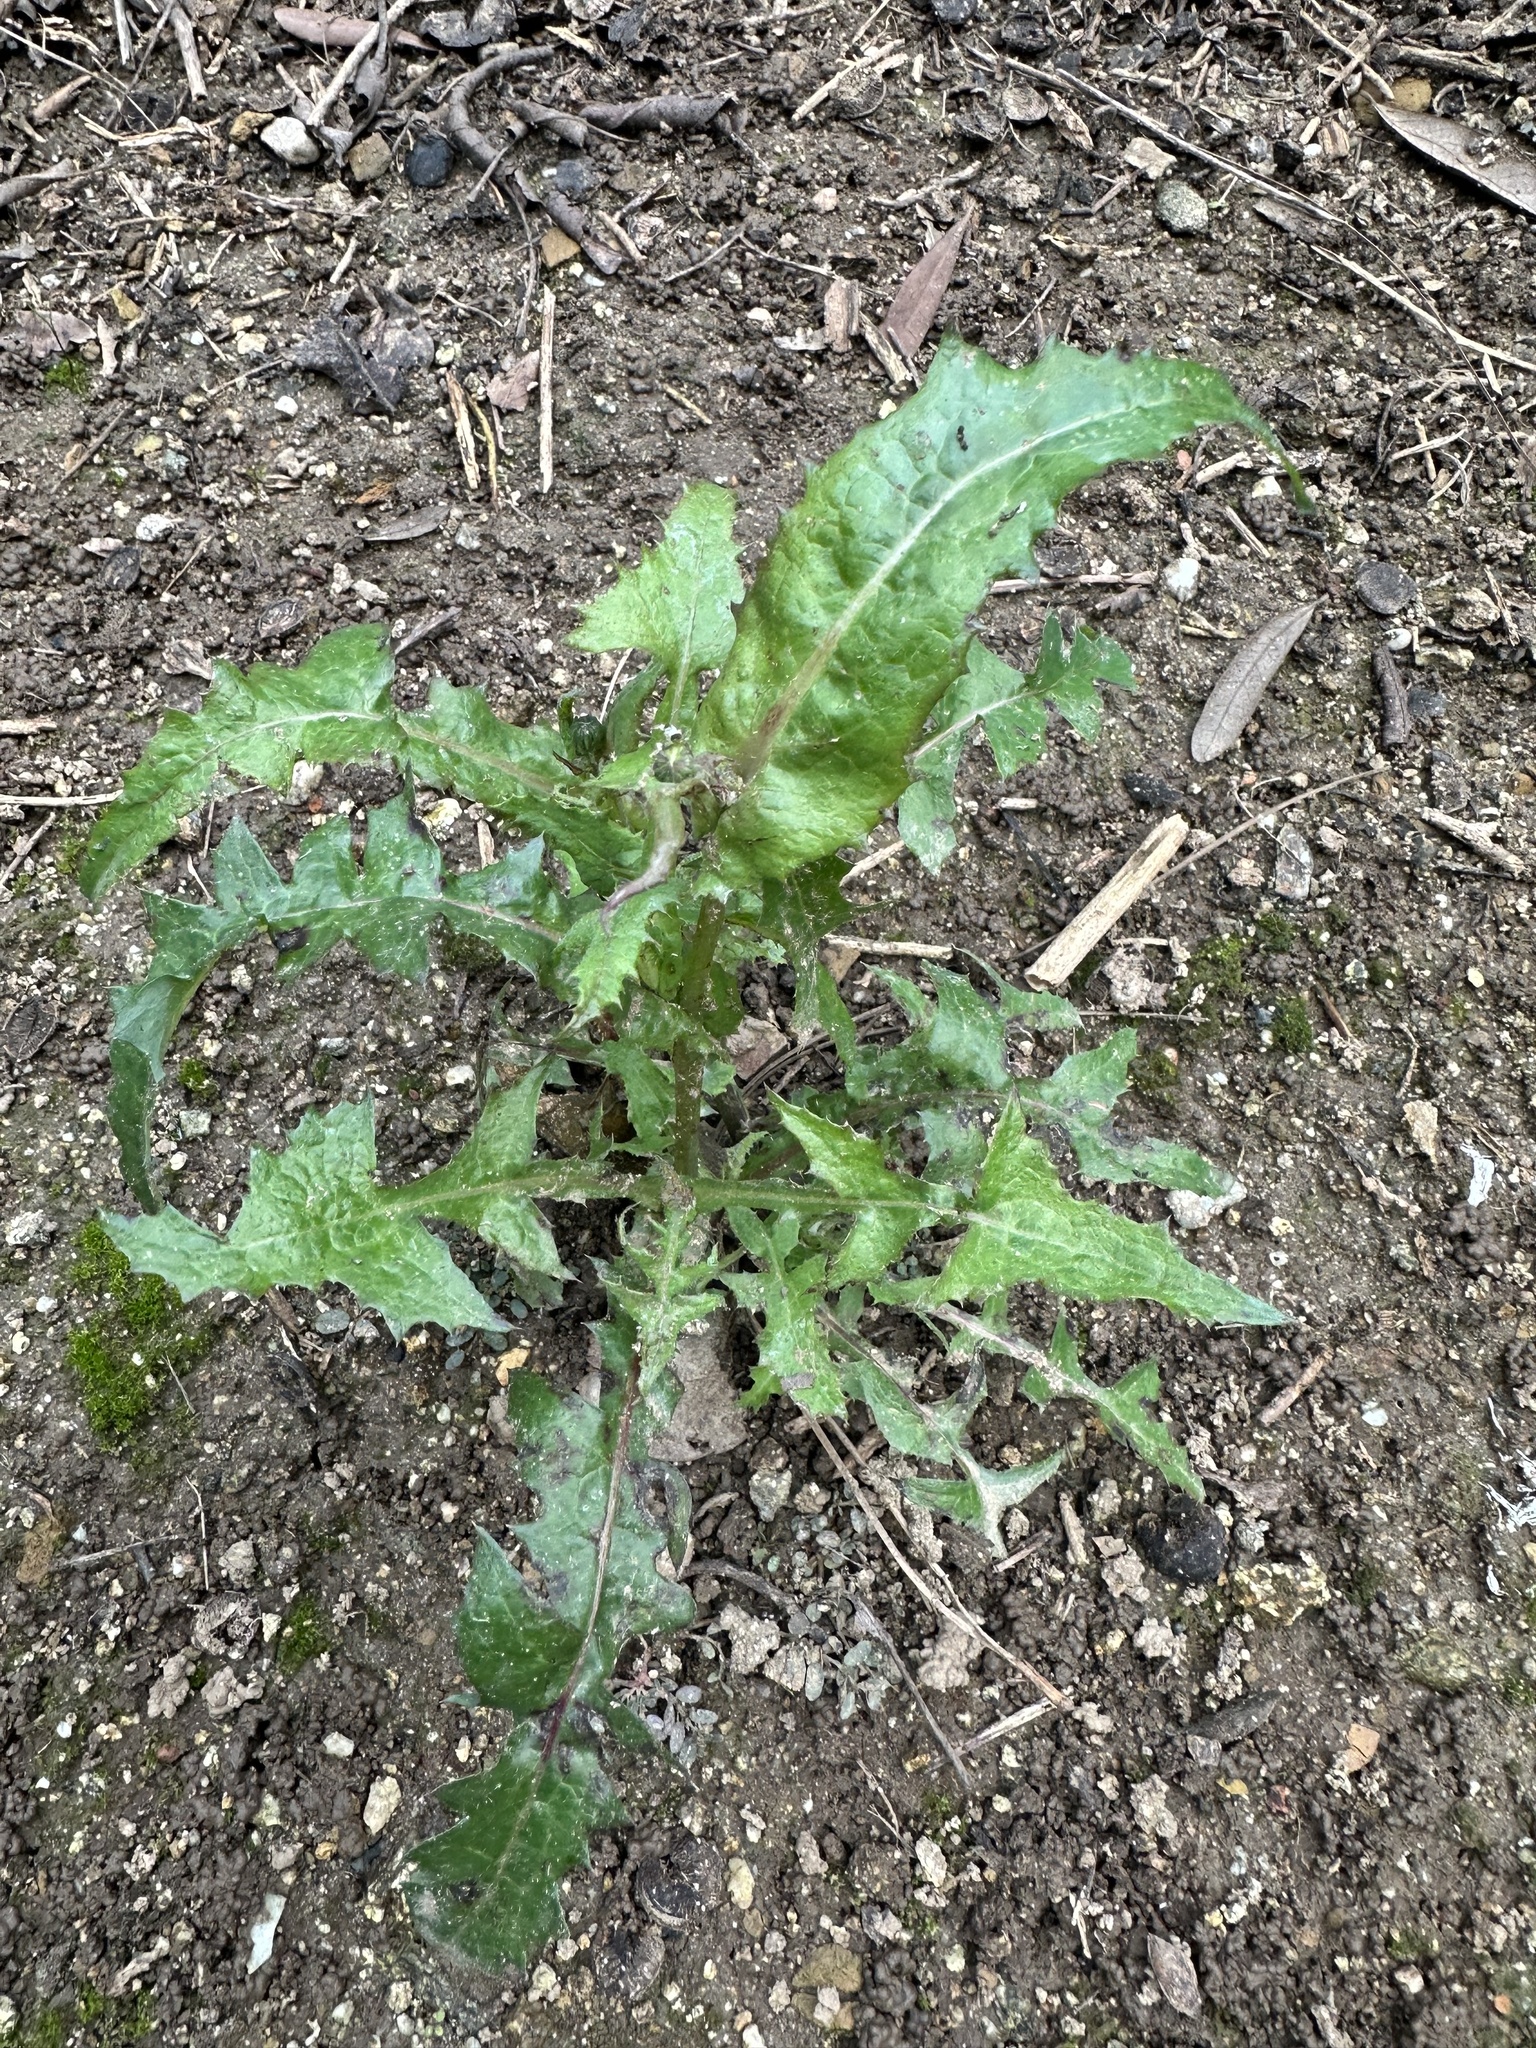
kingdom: Plantae
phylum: Tracheophyta
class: Magnoliopsida
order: Asterales
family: Asteraceae
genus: Sonchus
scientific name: Sonchus asper
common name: Prickly sow-thistle
